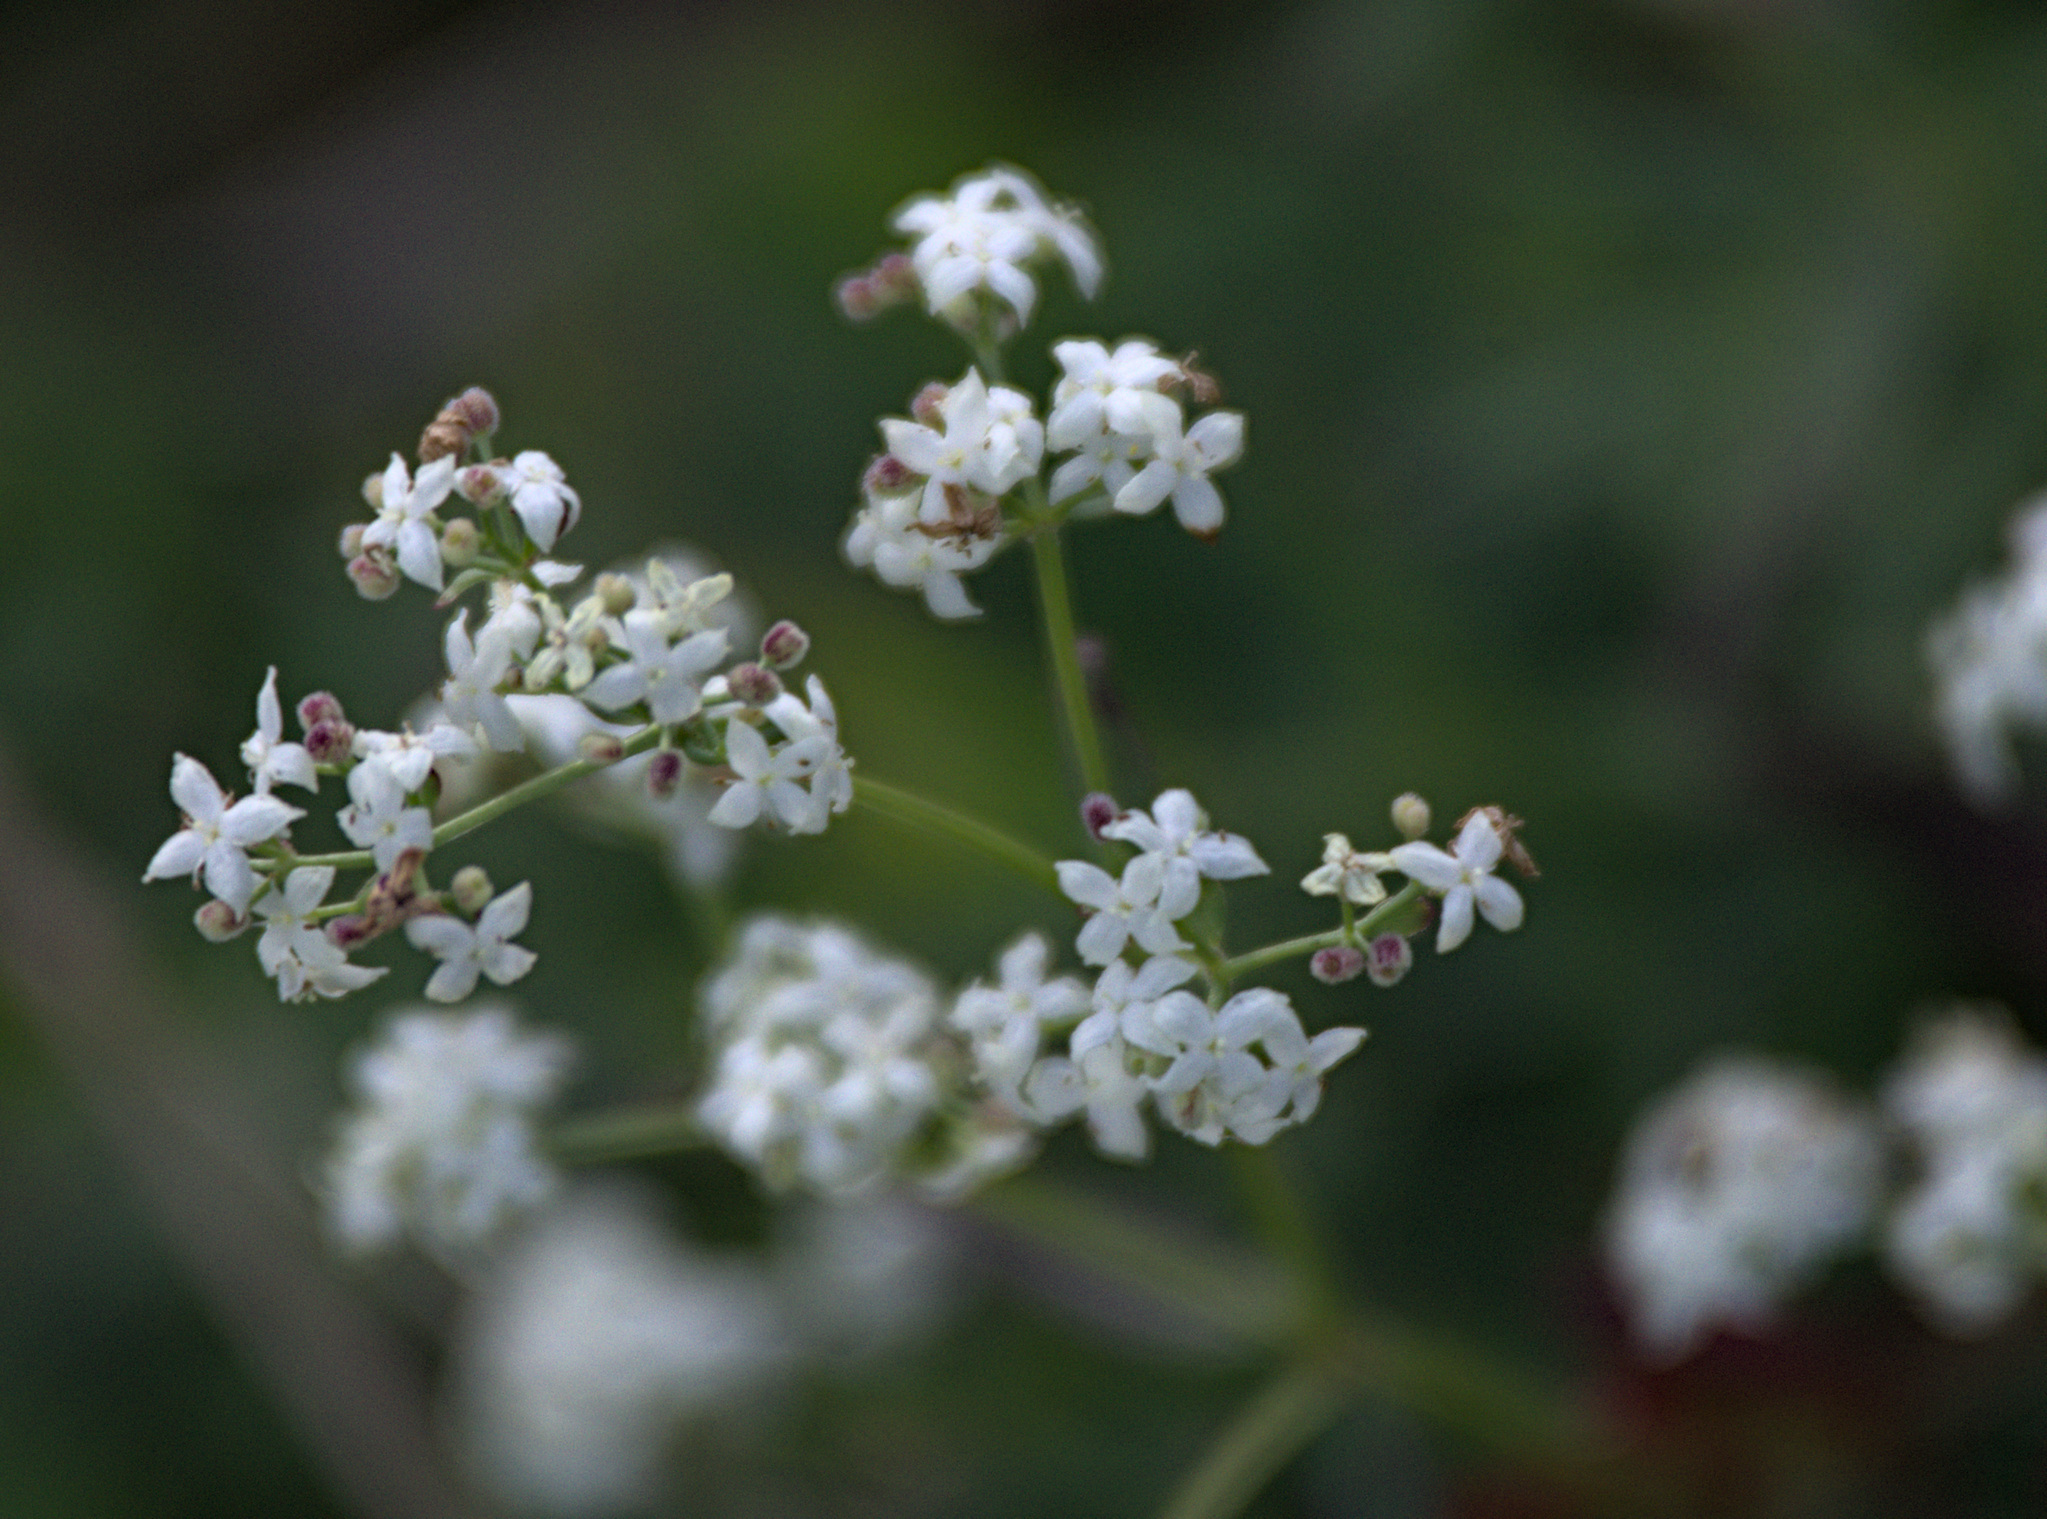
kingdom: Plantae
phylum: Tracheophyta
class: Magnoliopsida
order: Gentianales
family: Rubiaceae
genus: Galium
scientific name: Galium boreale
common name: Northern bedstraw
